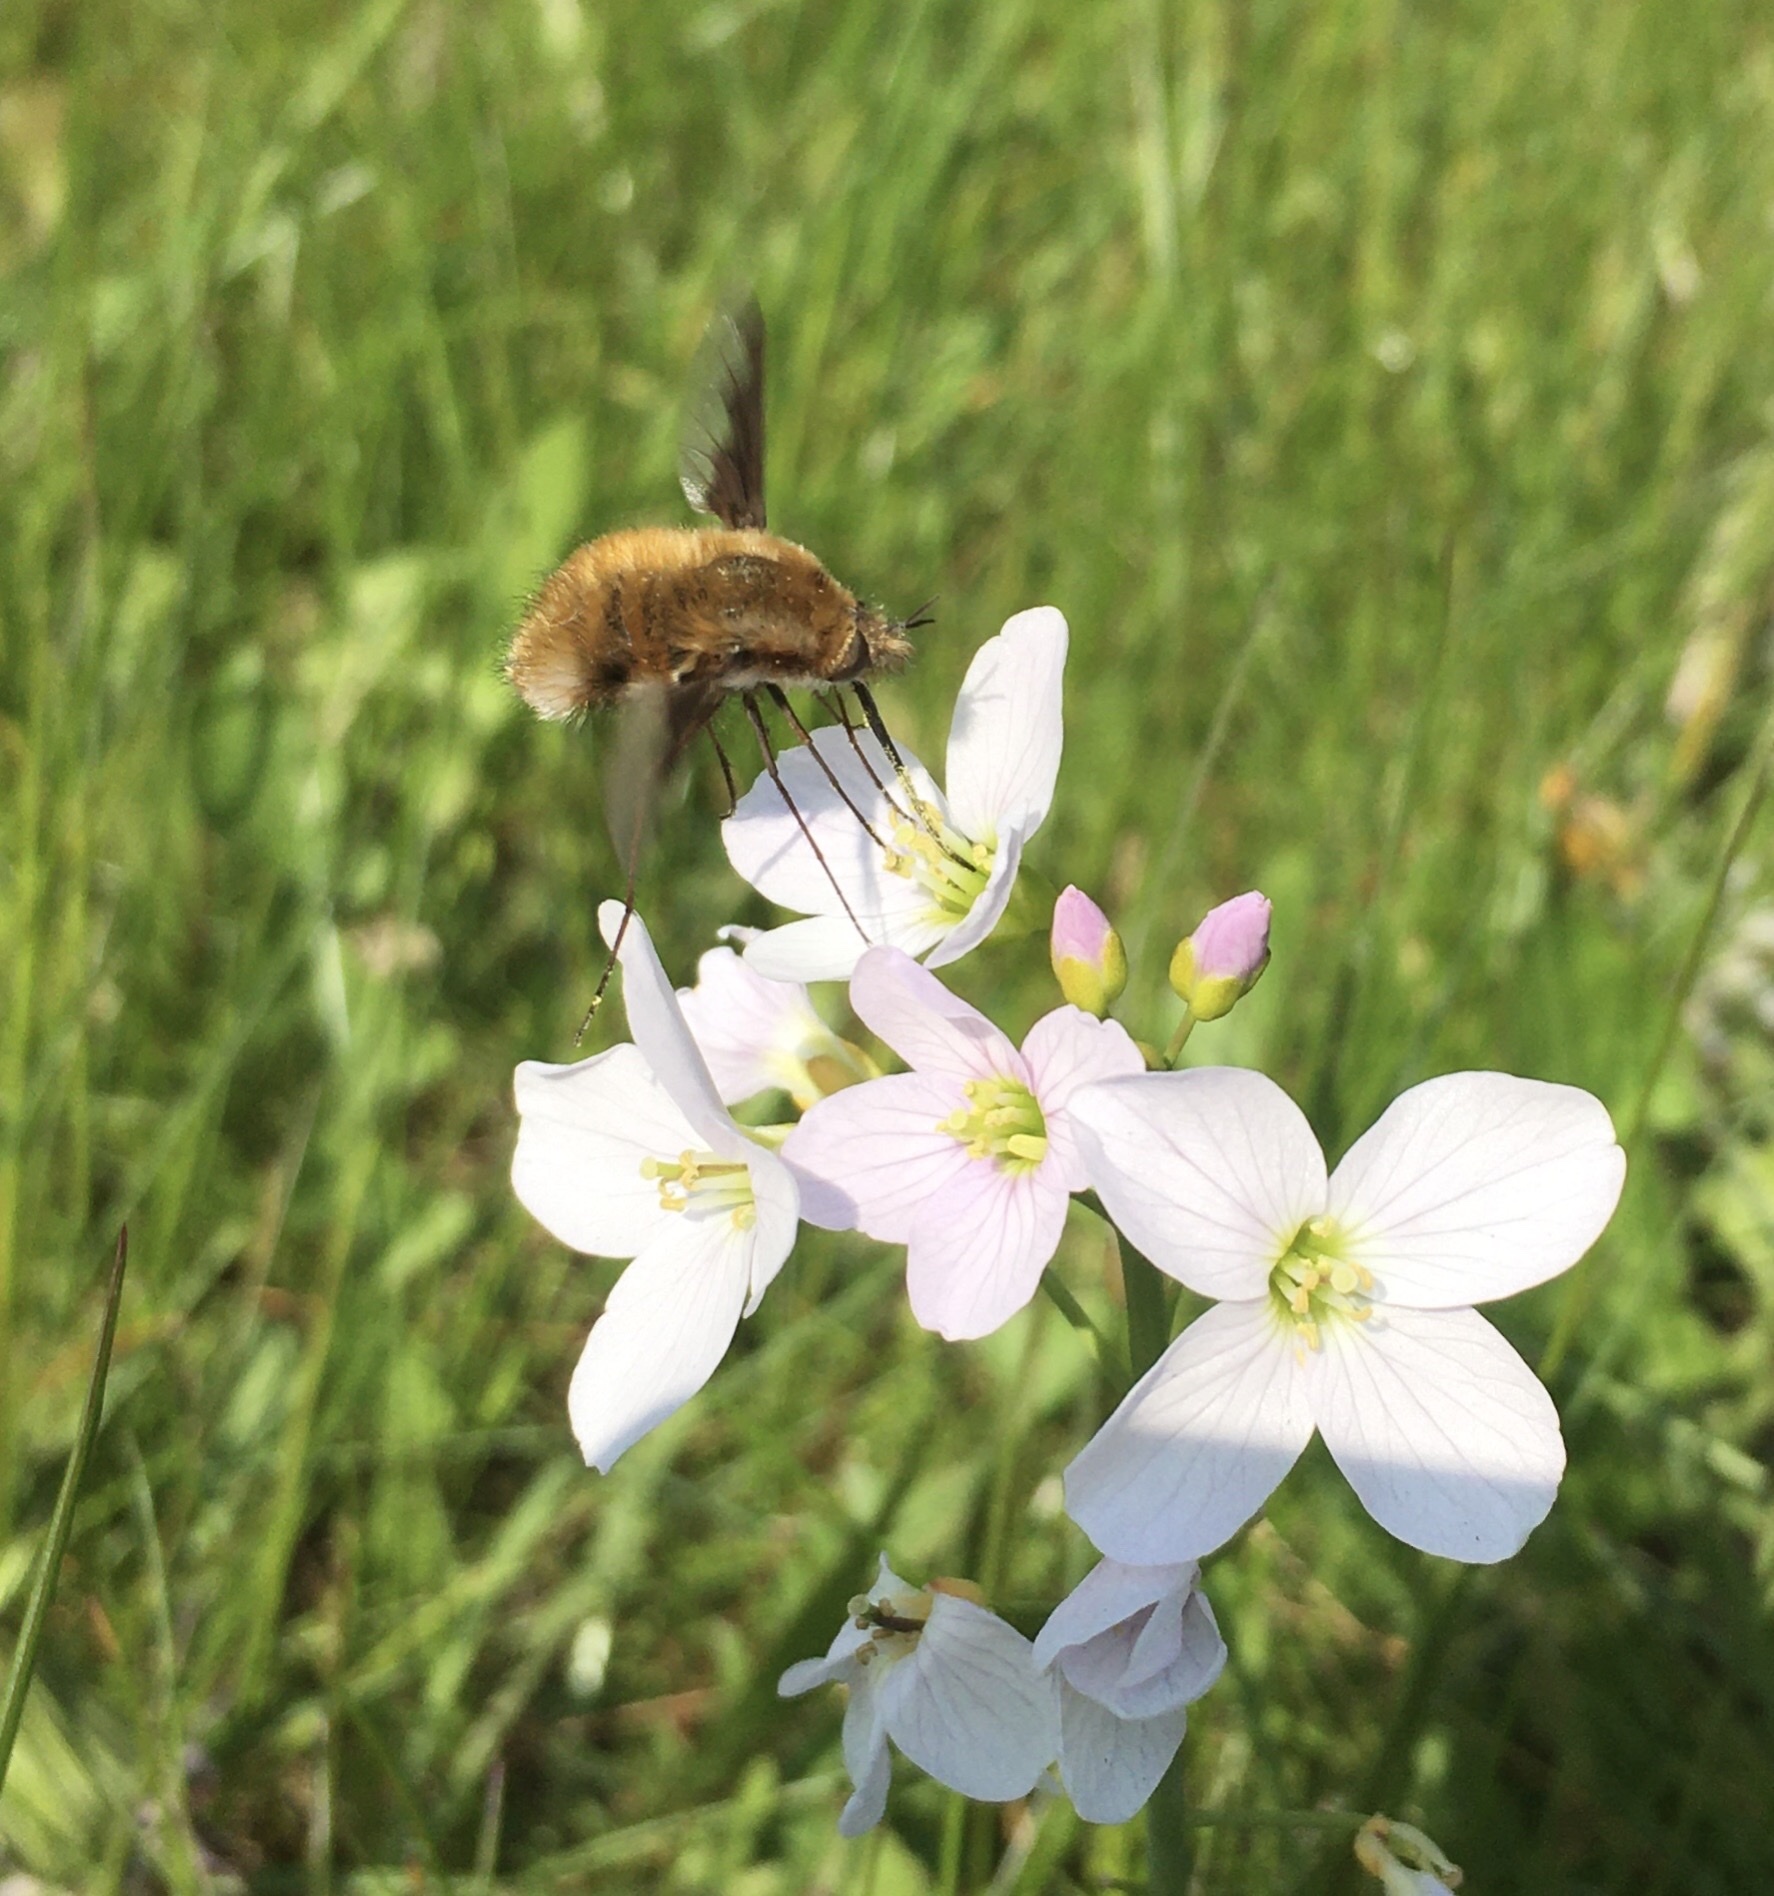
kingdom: Animalia
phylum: Arthropoda
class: Insecta
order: Diptera
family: Bombyliidae
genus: Bombylius
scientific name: Bombylius major
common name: Bee fly
